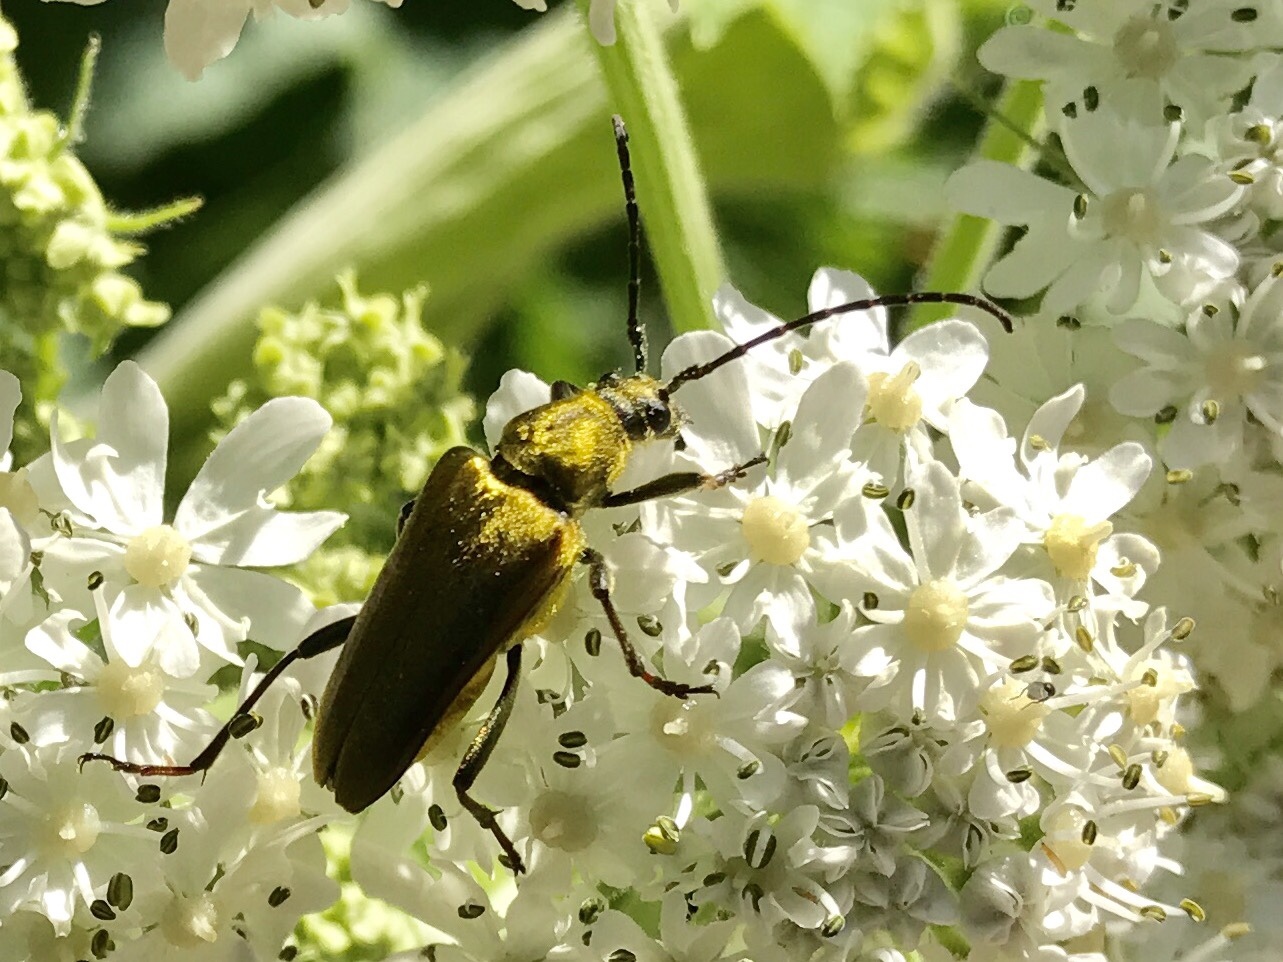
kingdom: Animalia
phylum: Arthropoda
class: Insecta
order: Coleoptera
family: Cerambycidae
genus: Cosmosalia
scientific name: Cosmosalia chrysocoma
